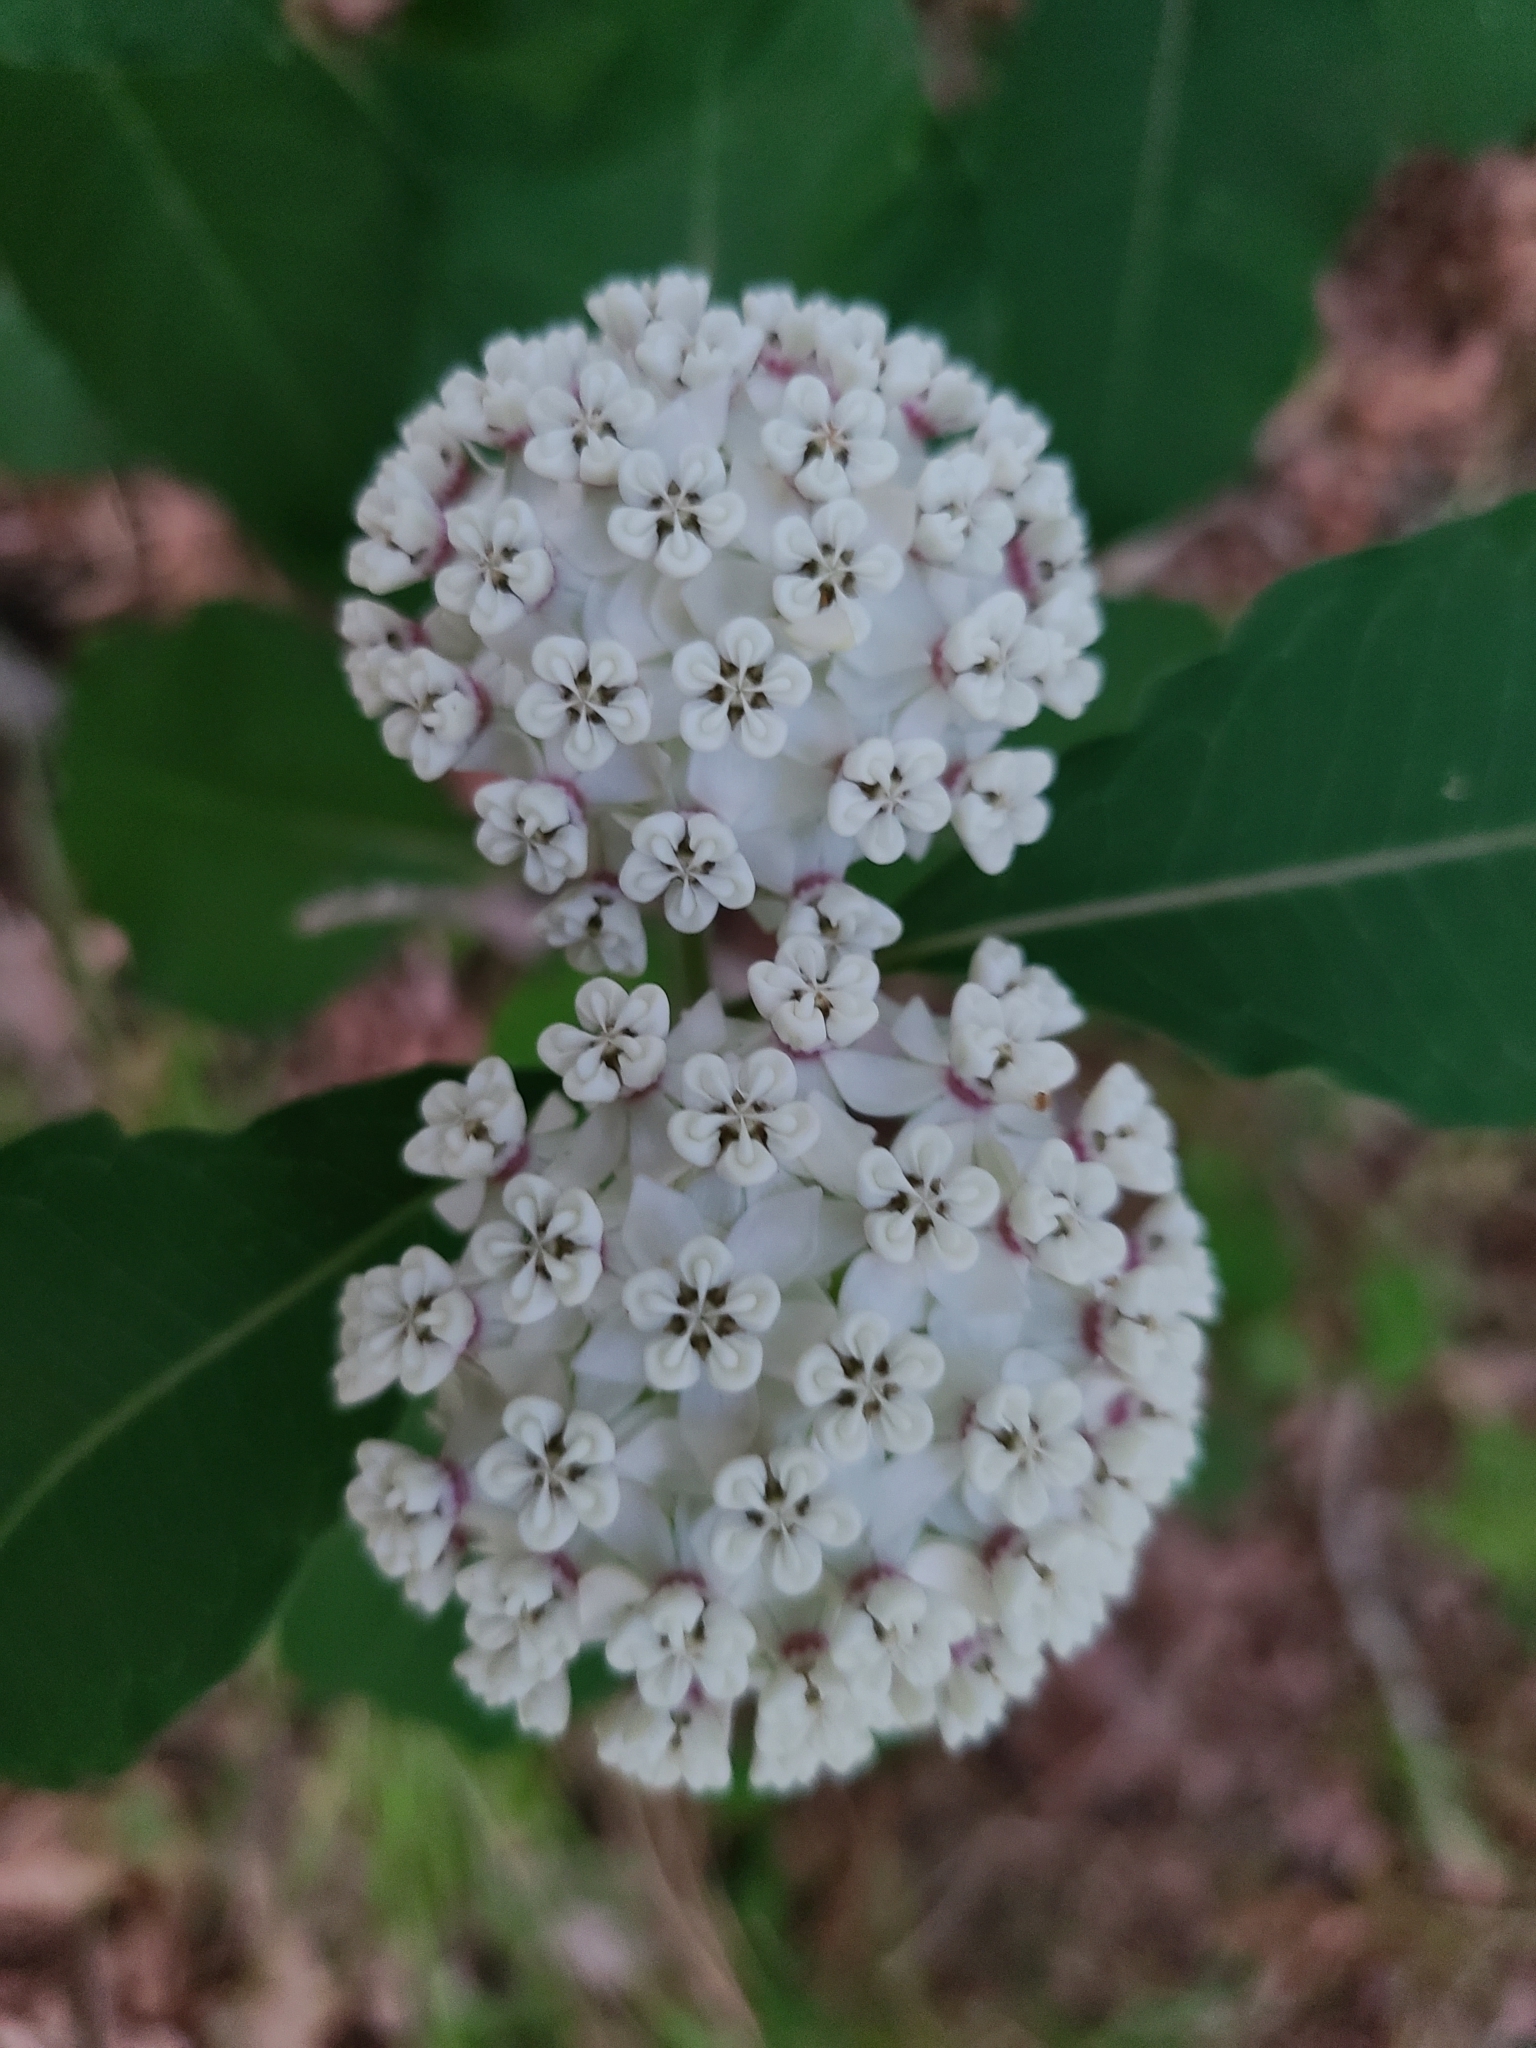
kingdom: Plantae
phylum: Tracheophyta
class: Magnoliopsida
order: Gentianales
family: Apocynaceae
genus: Asclepias
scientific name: Asclepias variegata
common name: Variegated milkweed
